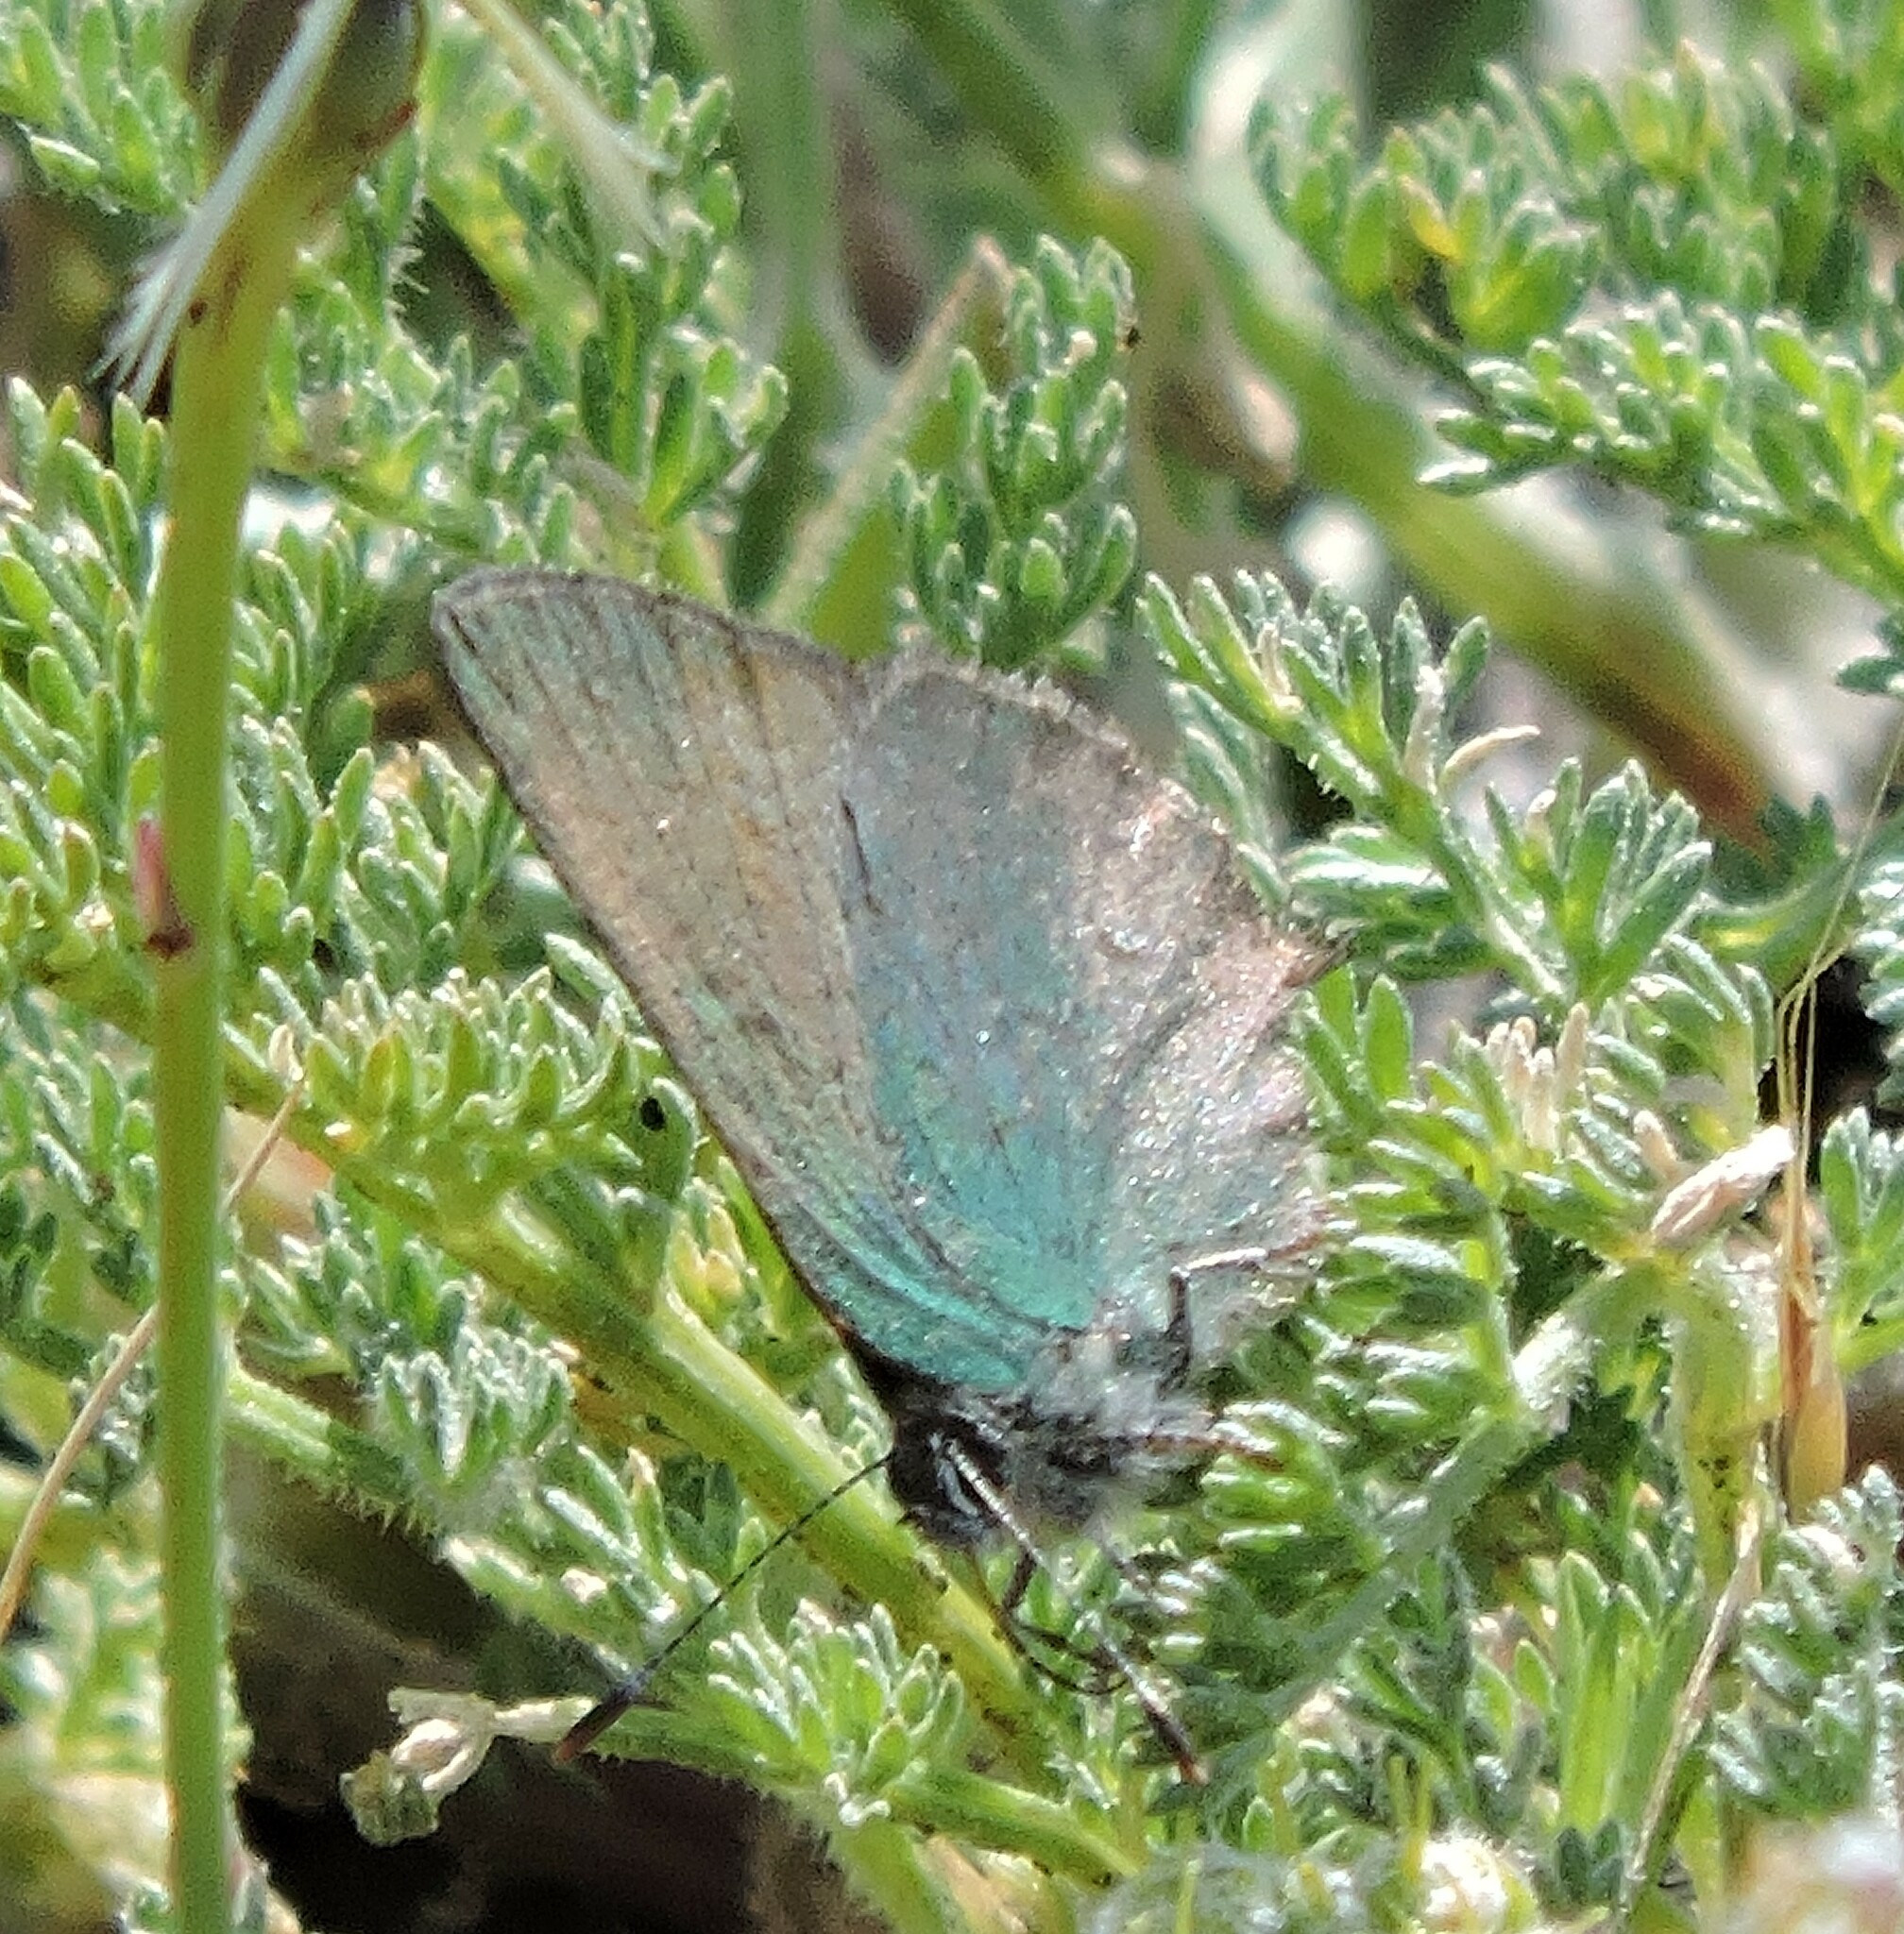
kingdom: Animalia
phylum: Arthropoda
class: Insecta
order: Lepidoptera
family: Lycaenidae
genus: Callophrys
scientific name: Callophrys dumetorum
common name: Bramble hairstreak
